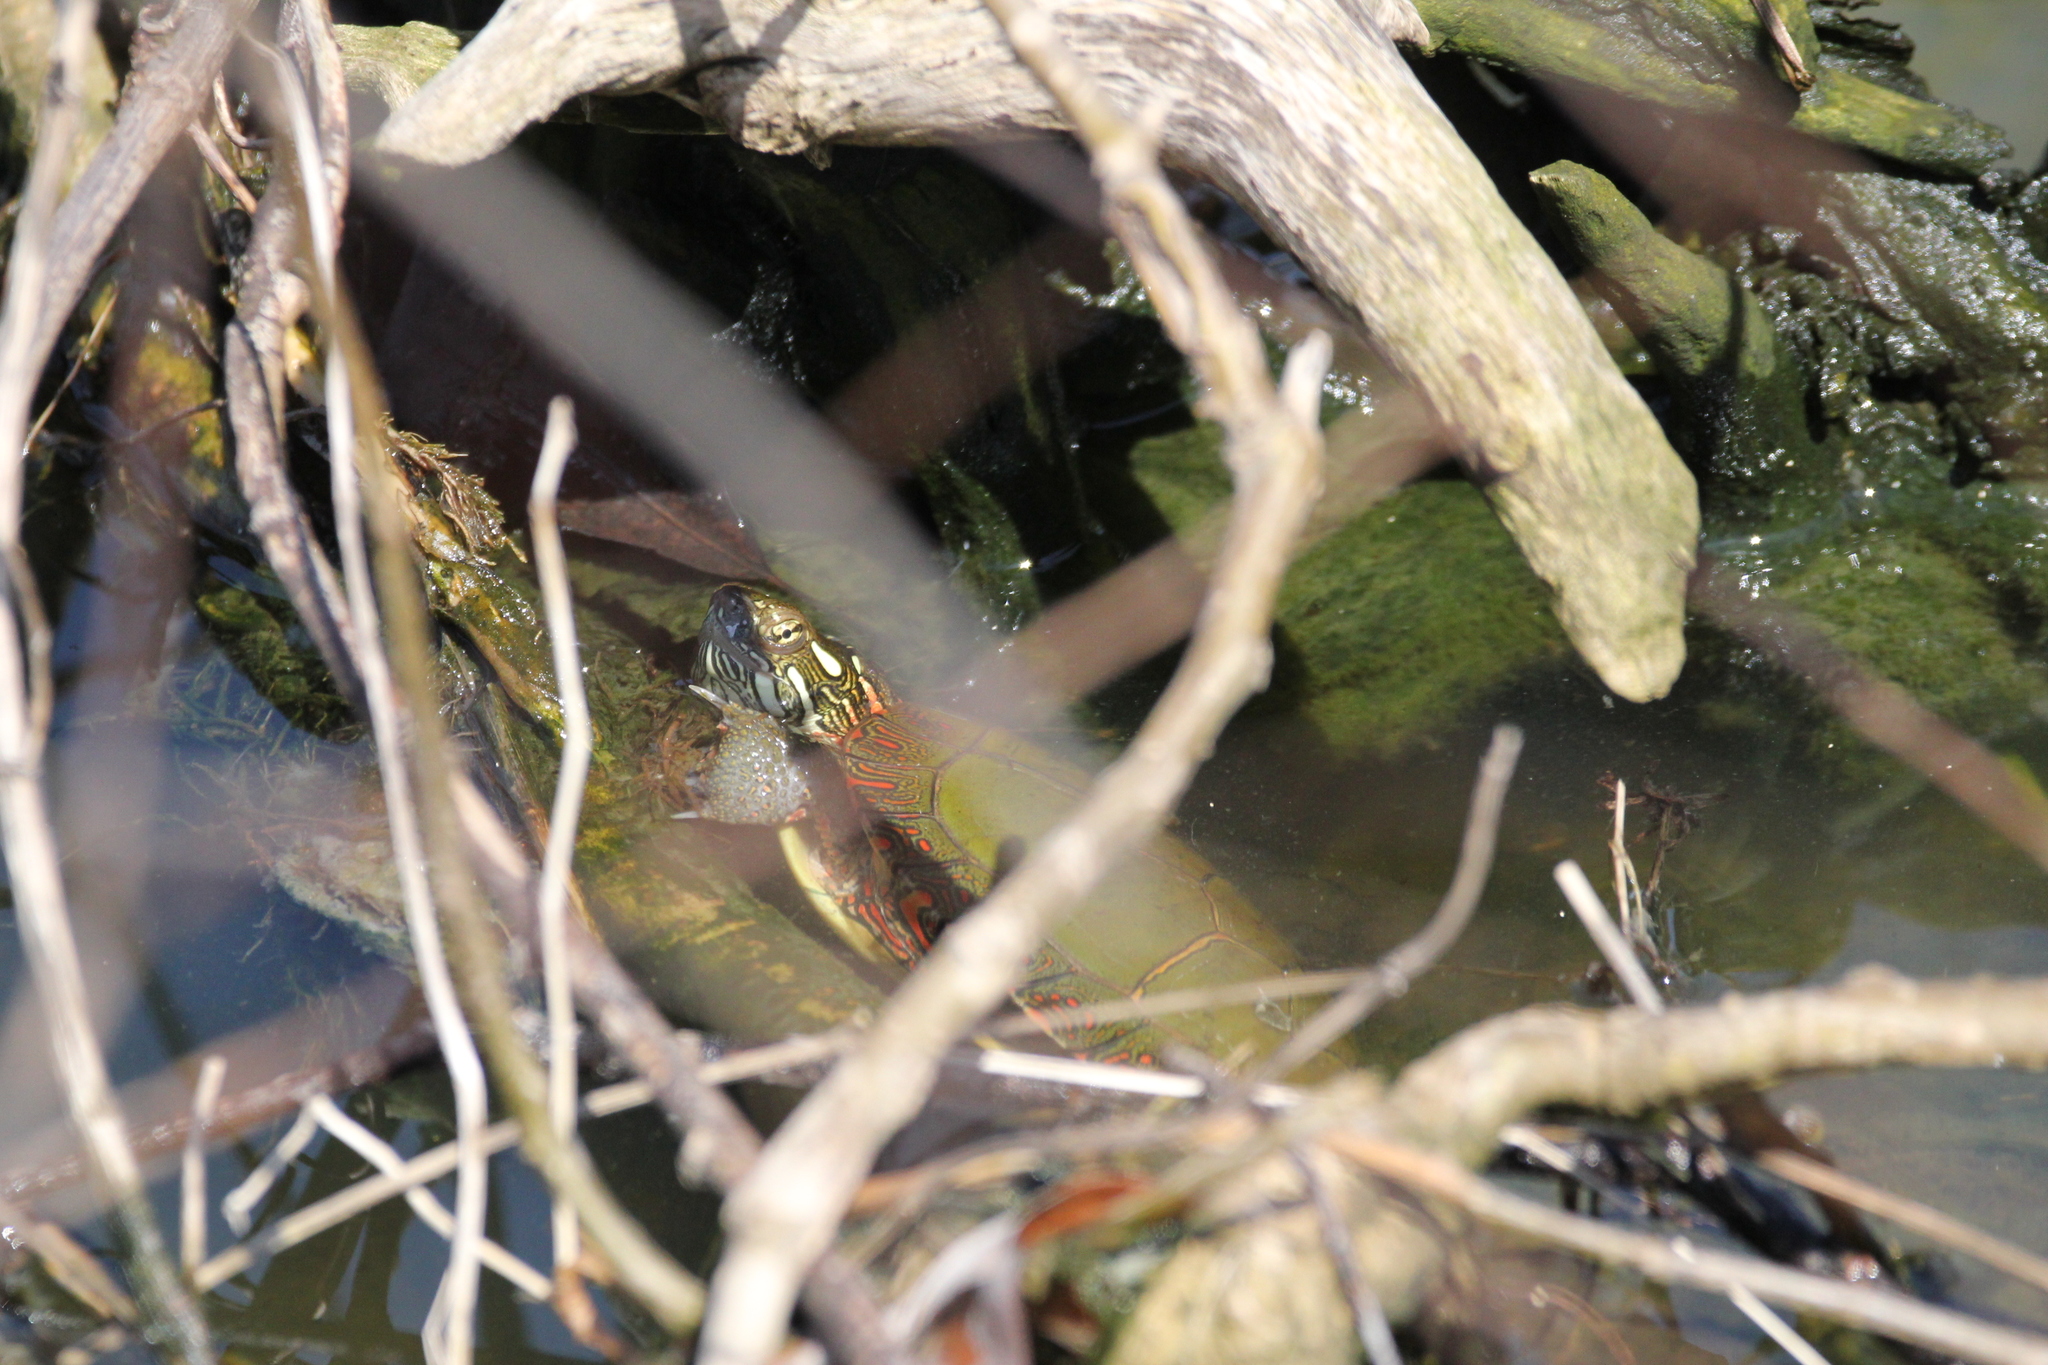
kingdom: Animalia
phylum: Chordata
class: Testudines
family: Emydidae
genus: Chrysemys
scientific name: Chrysemys picta
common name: Painted turtle
